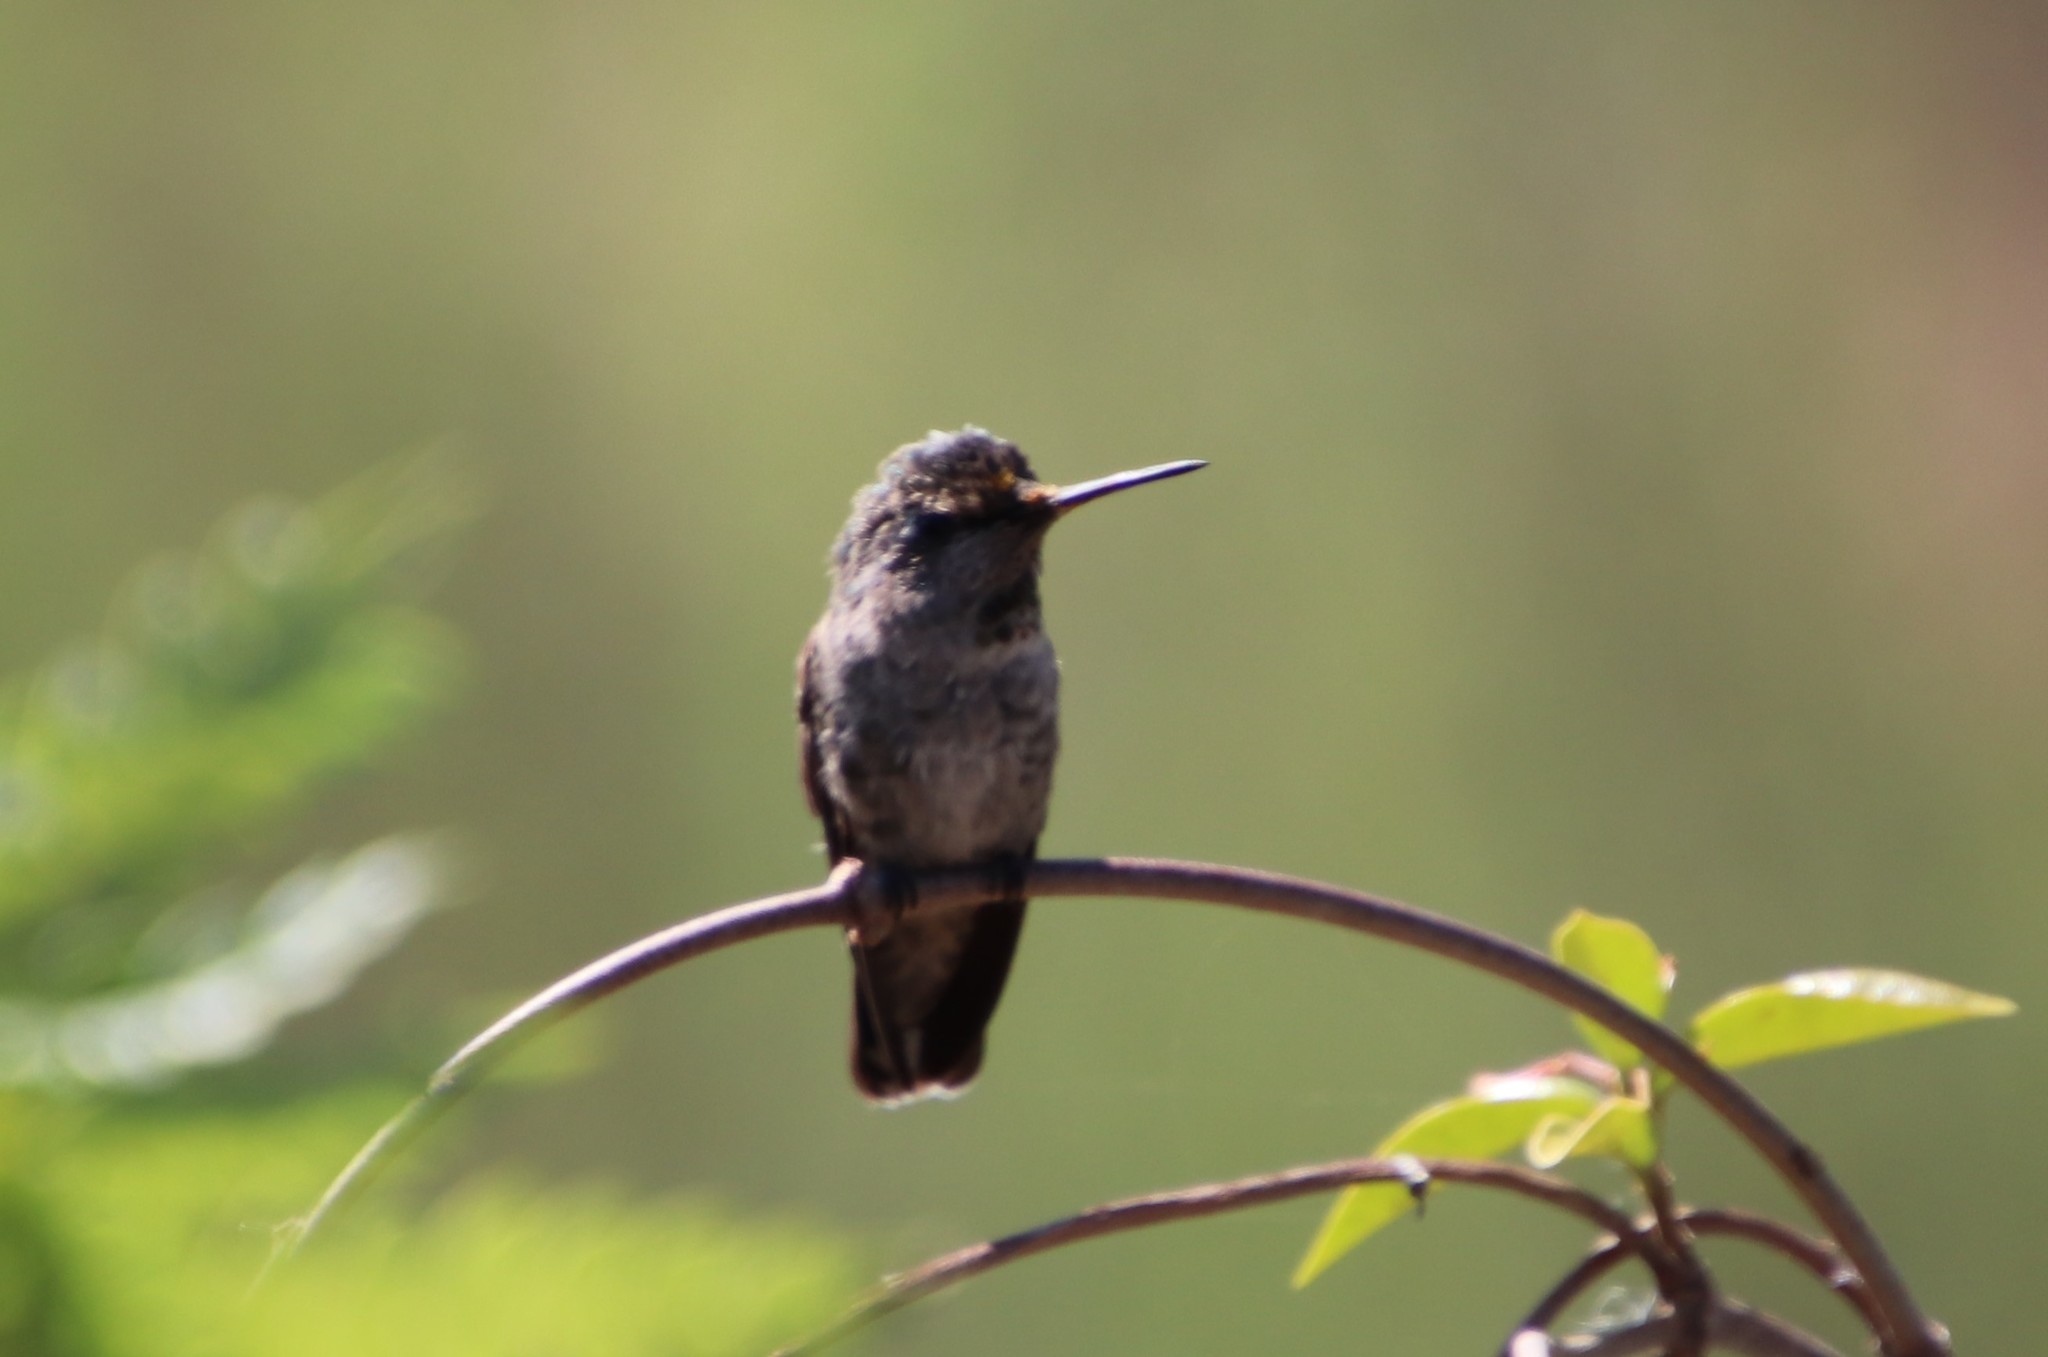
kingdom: Animalia
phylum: Chordata
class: Aves
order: Apodiformes
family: Trochilidae
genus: Calypte
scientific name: Calypte anna
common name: Anna's hummingbird
